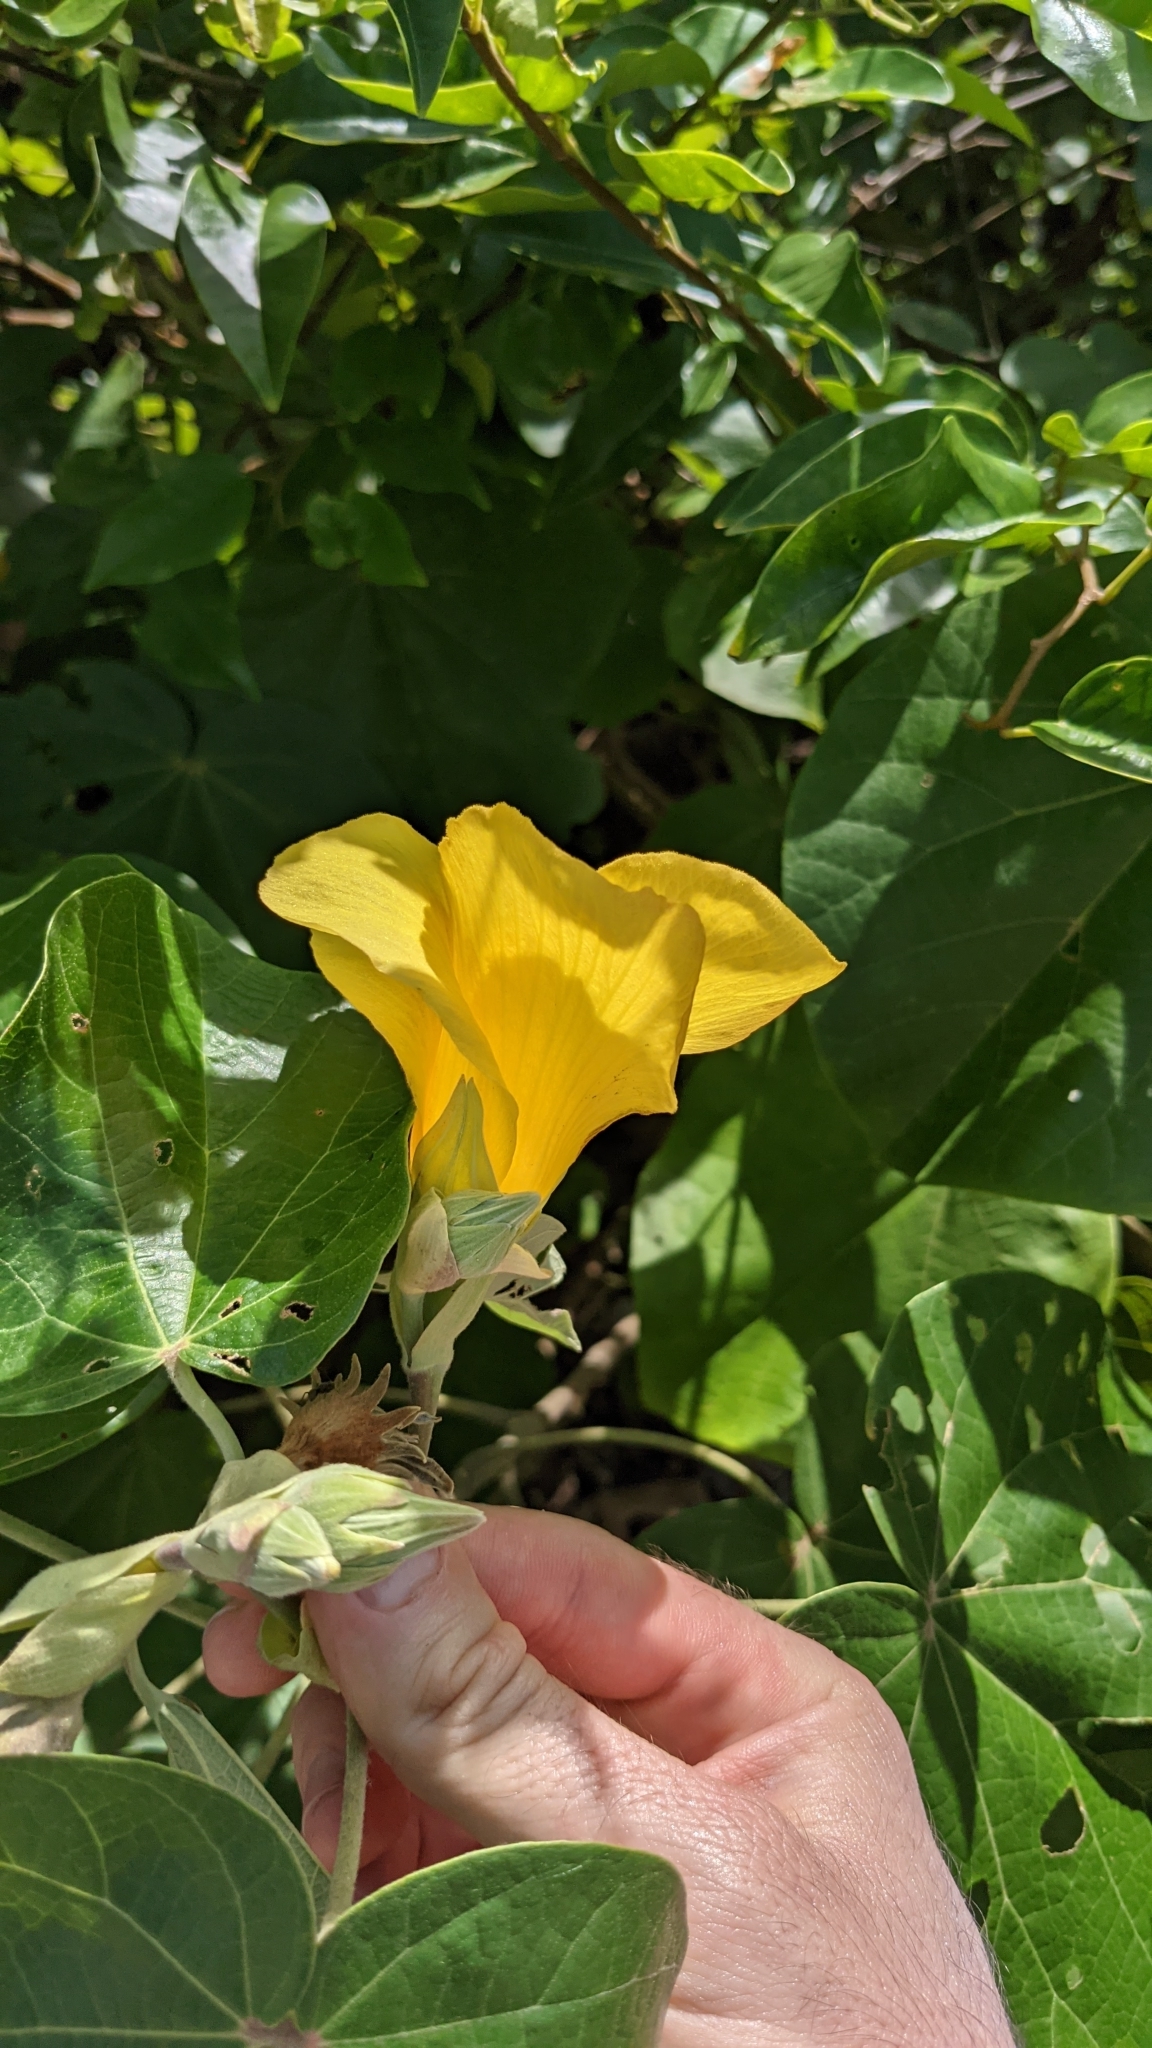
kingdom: Plantae
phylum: Tracheophyta
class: Magnoliopsida
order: Malvales
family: Malvaceae
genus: Talipariti
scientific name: Talipariti pernambucense
